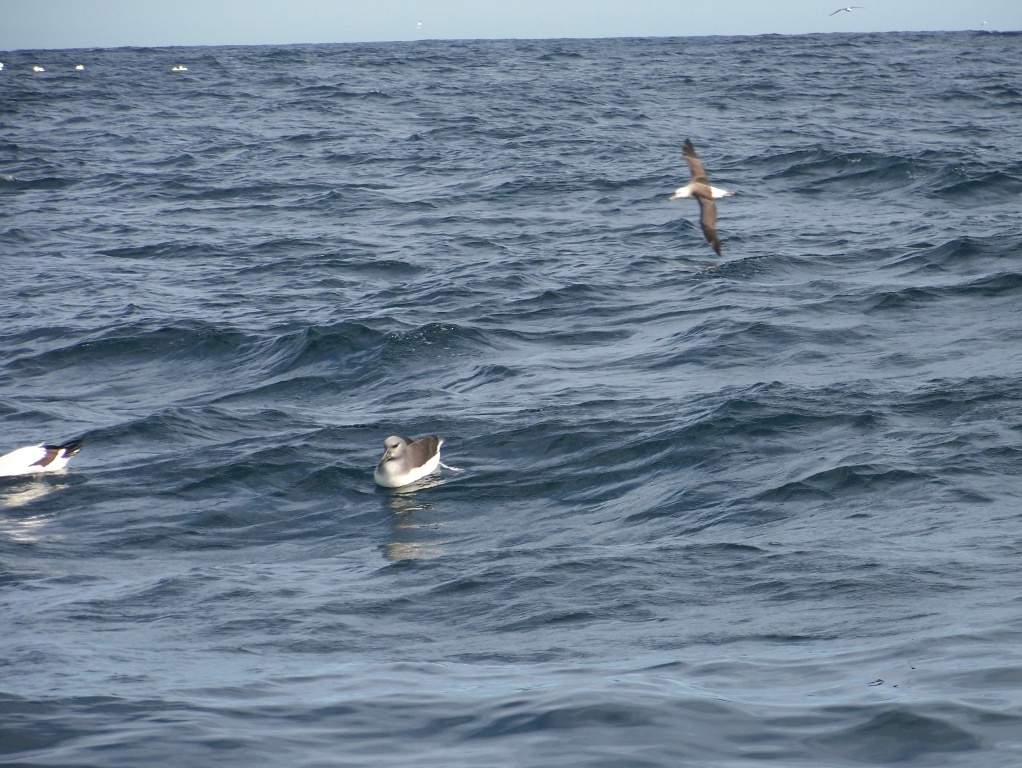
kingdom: Animalia
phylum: Chordata
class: Aves
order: Procellariiformes
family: Diomedeidae
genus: Thalassarche
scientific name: Thalassarche chrysostoma
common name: Grey-headed albatross
